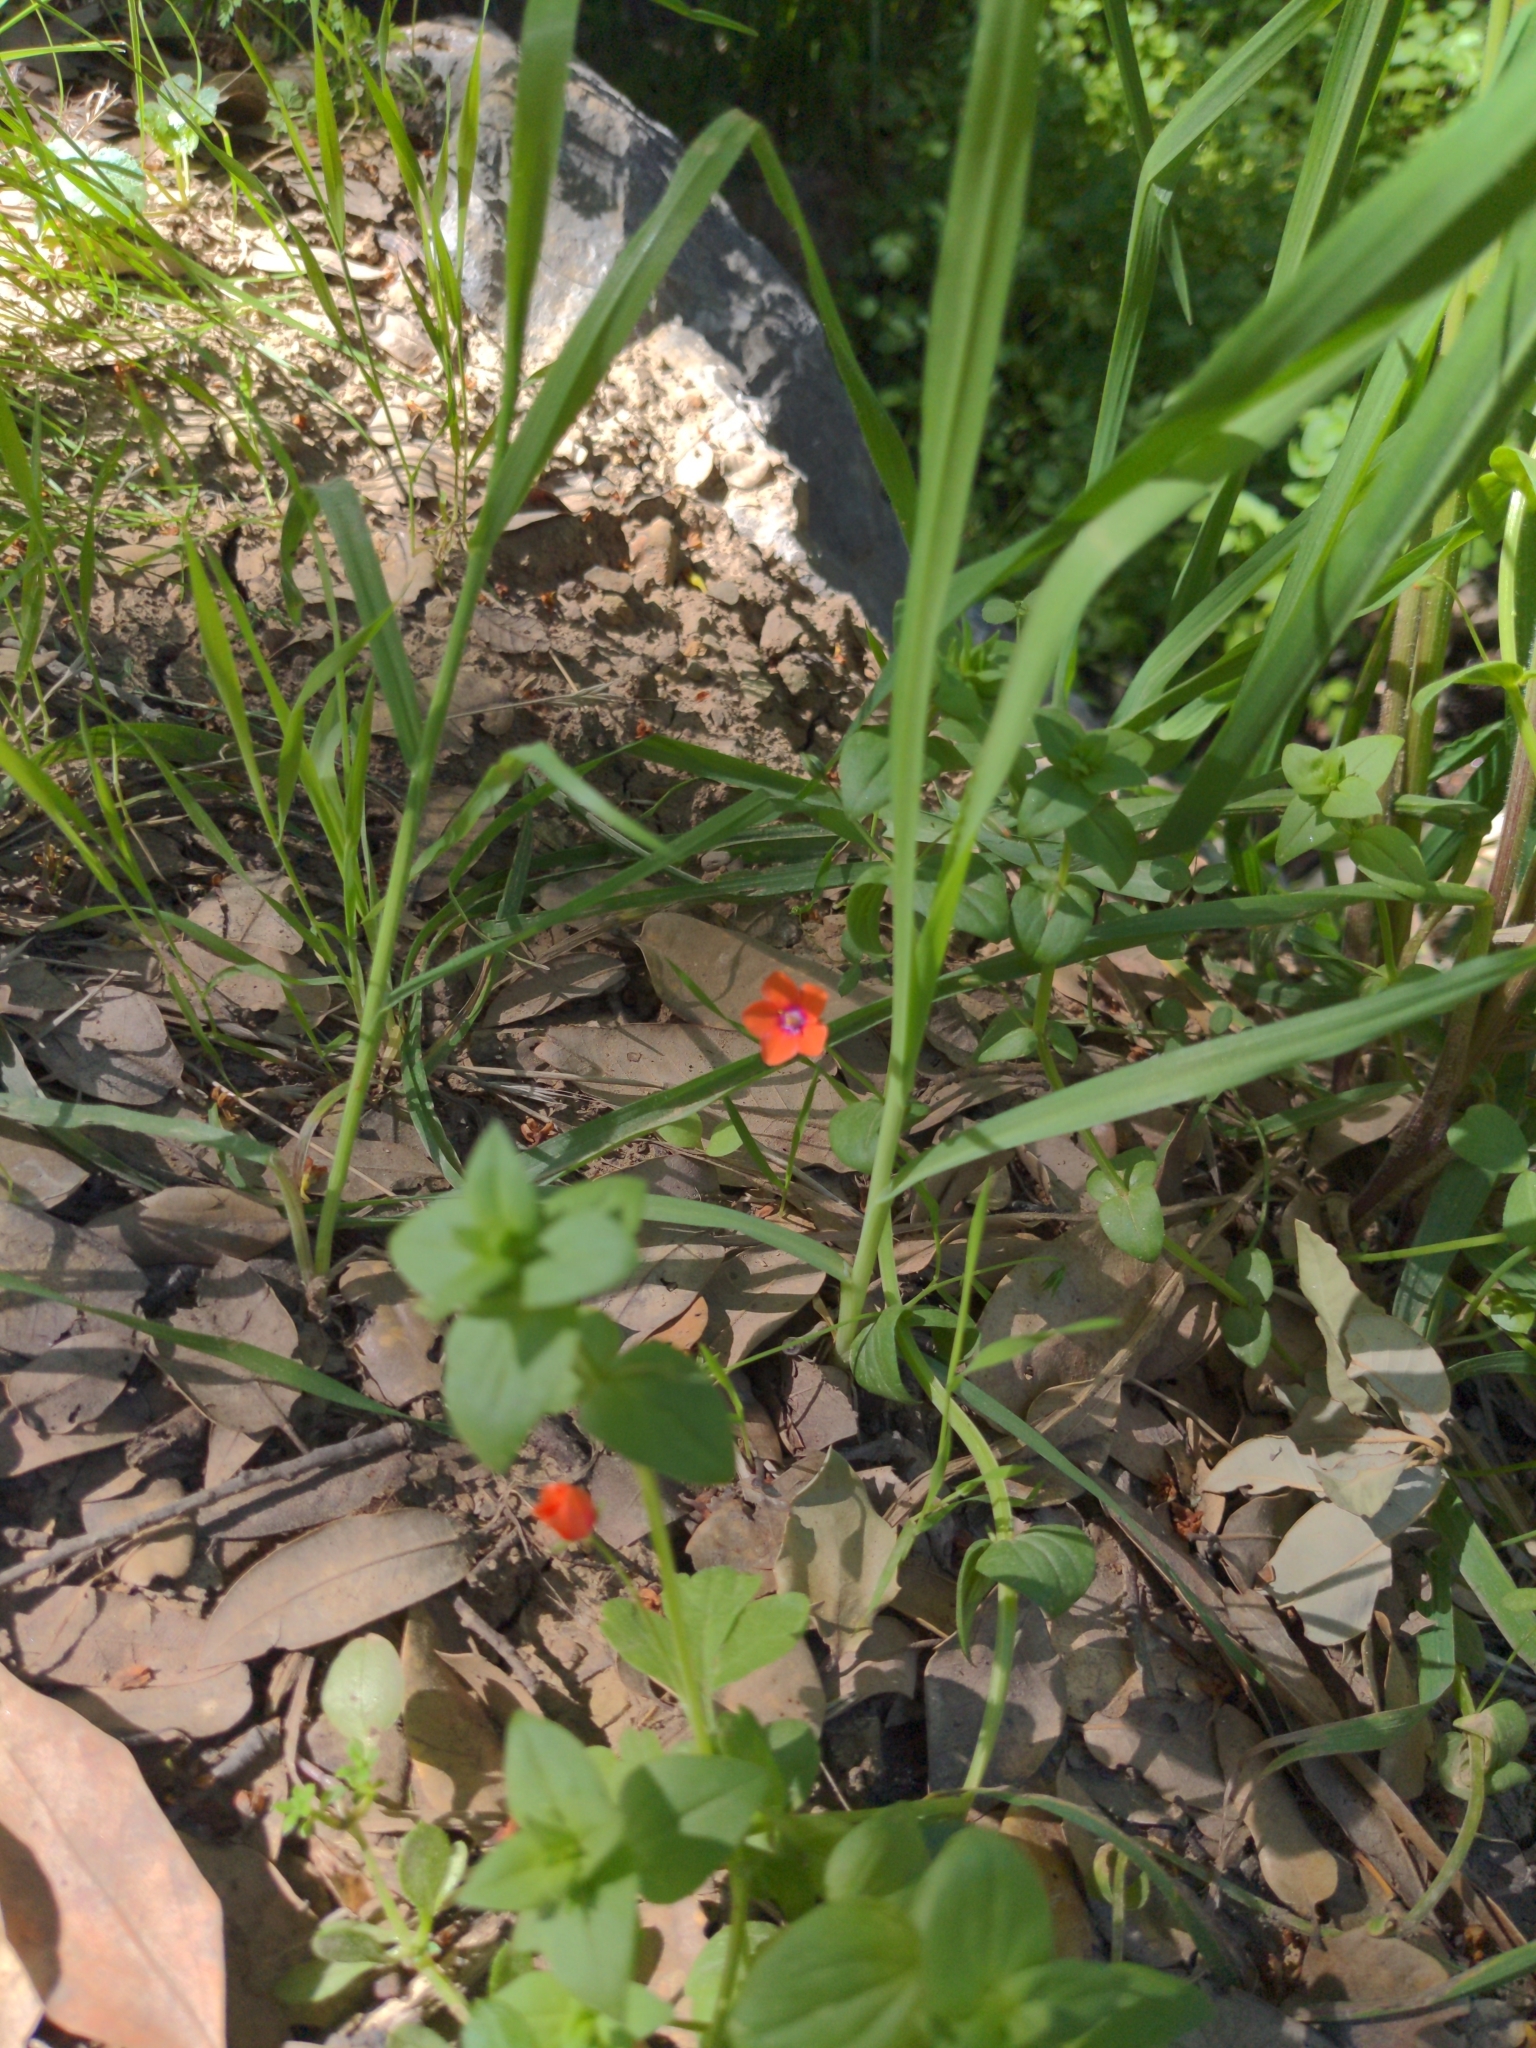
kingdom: Plantae
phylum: Tracheophyta
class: Magnoliopsida
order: Ericales
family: Primulaceae
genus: Lysimachia
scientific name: Lysimachia arvensis
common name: Scarlet pimpernel
